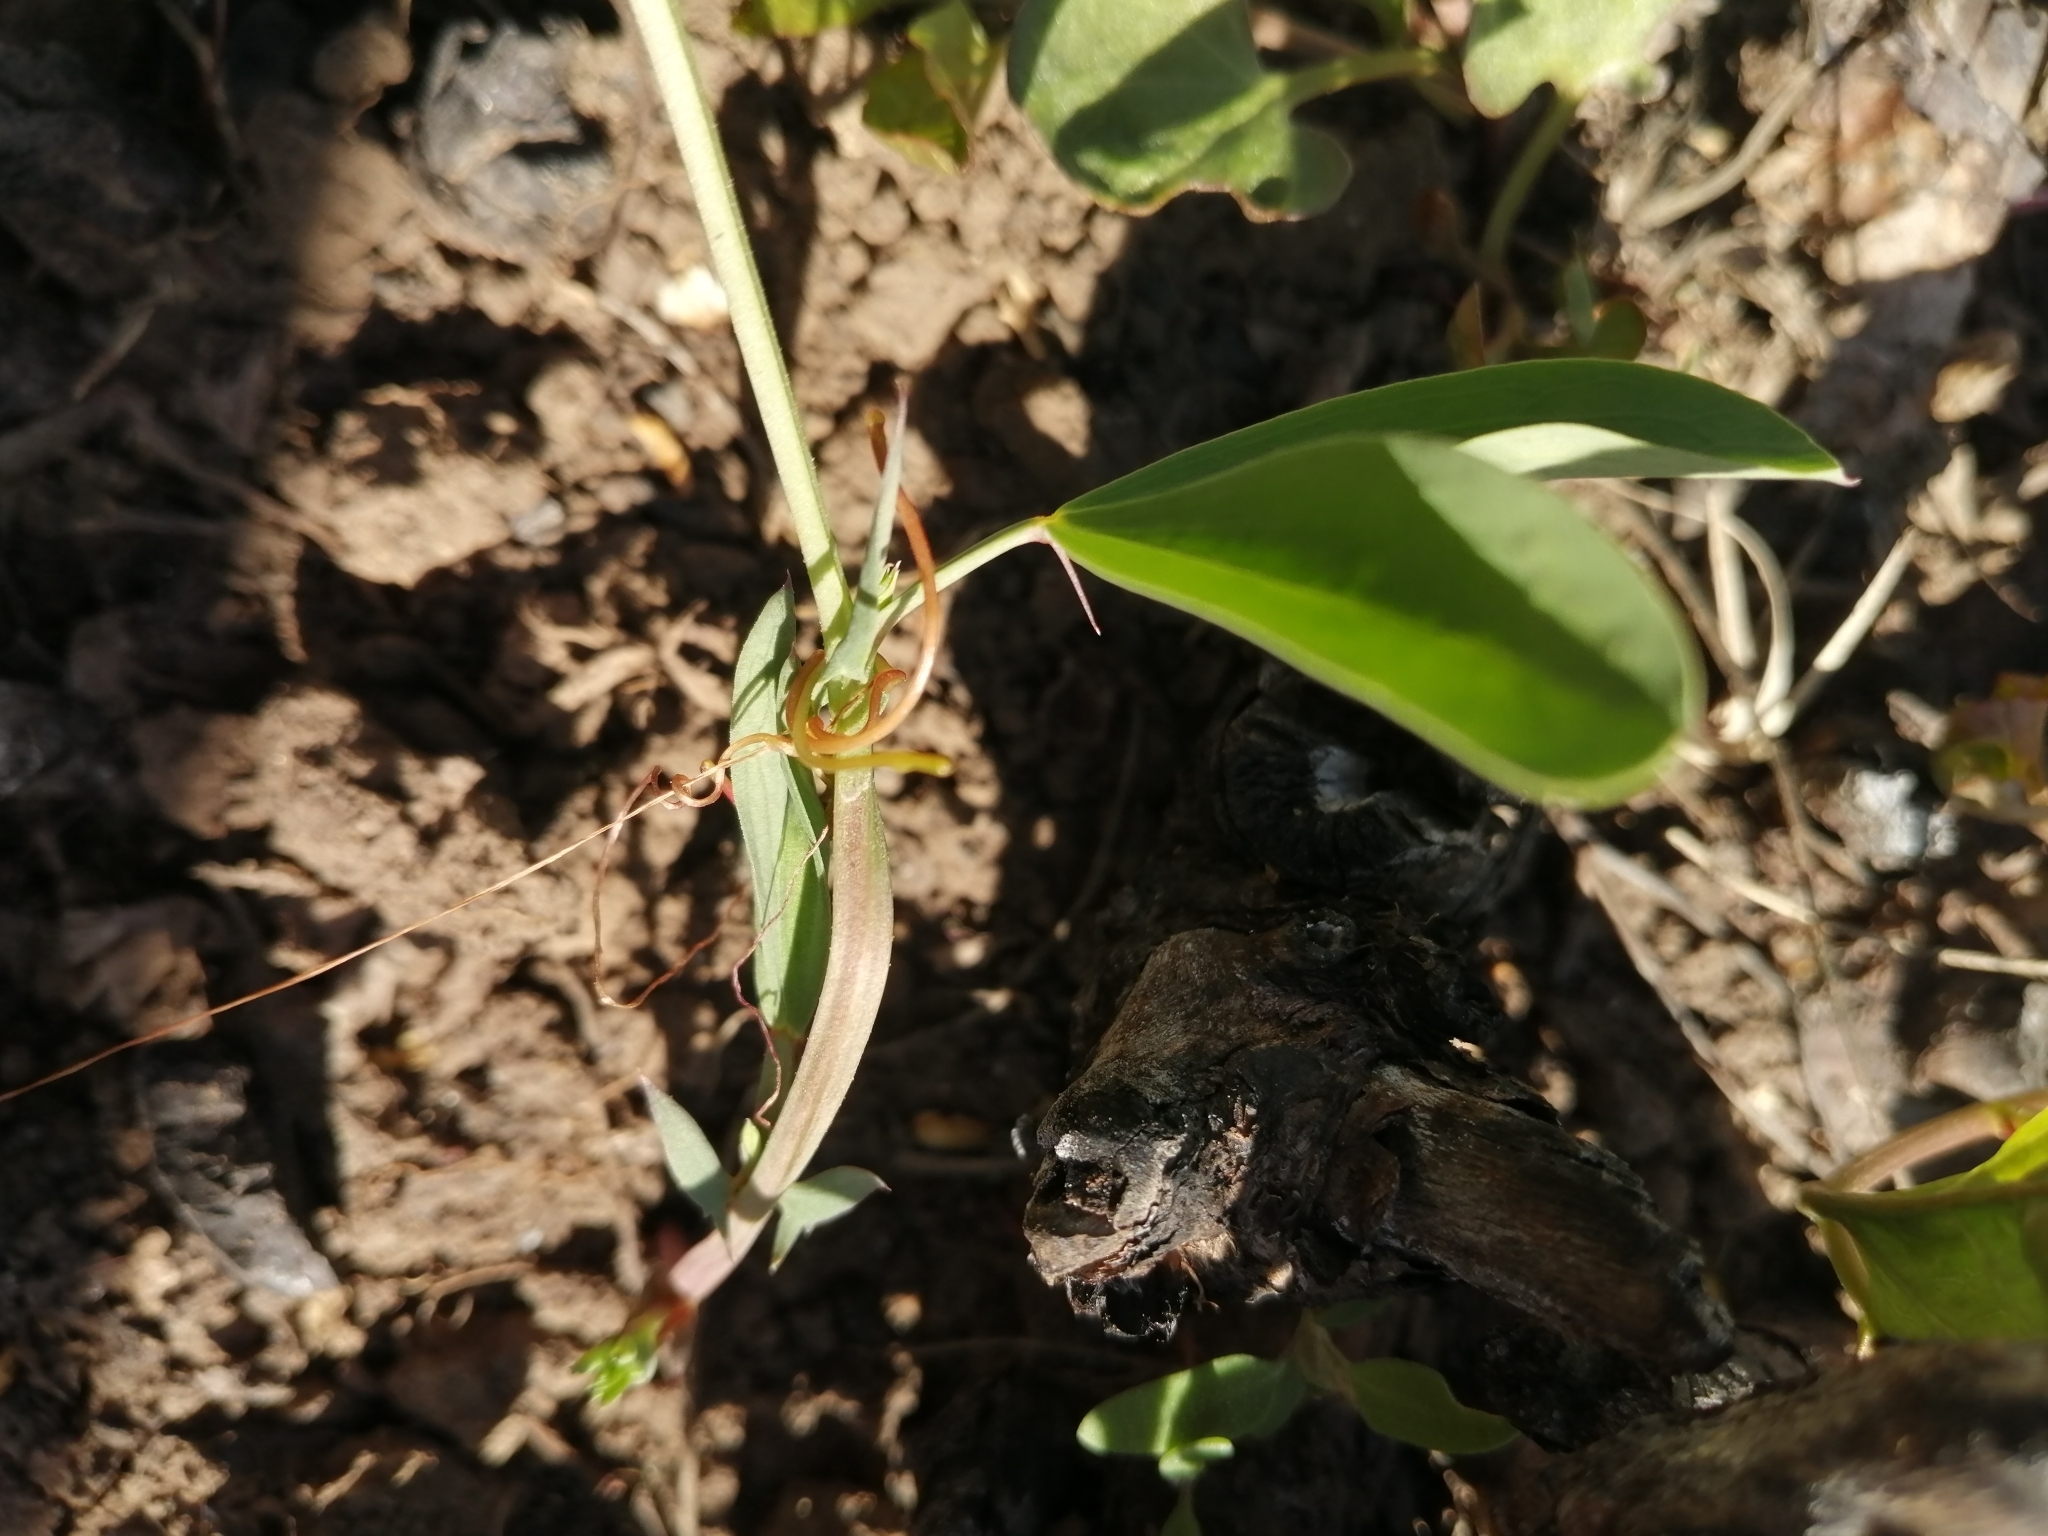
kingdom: Plantae
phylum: Tracheophyta
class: Magnoliopsida
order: Solanales
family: Convolvulaceae
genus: Cuscuta
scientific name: Cuscuta campestris
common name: Yellow dodder
